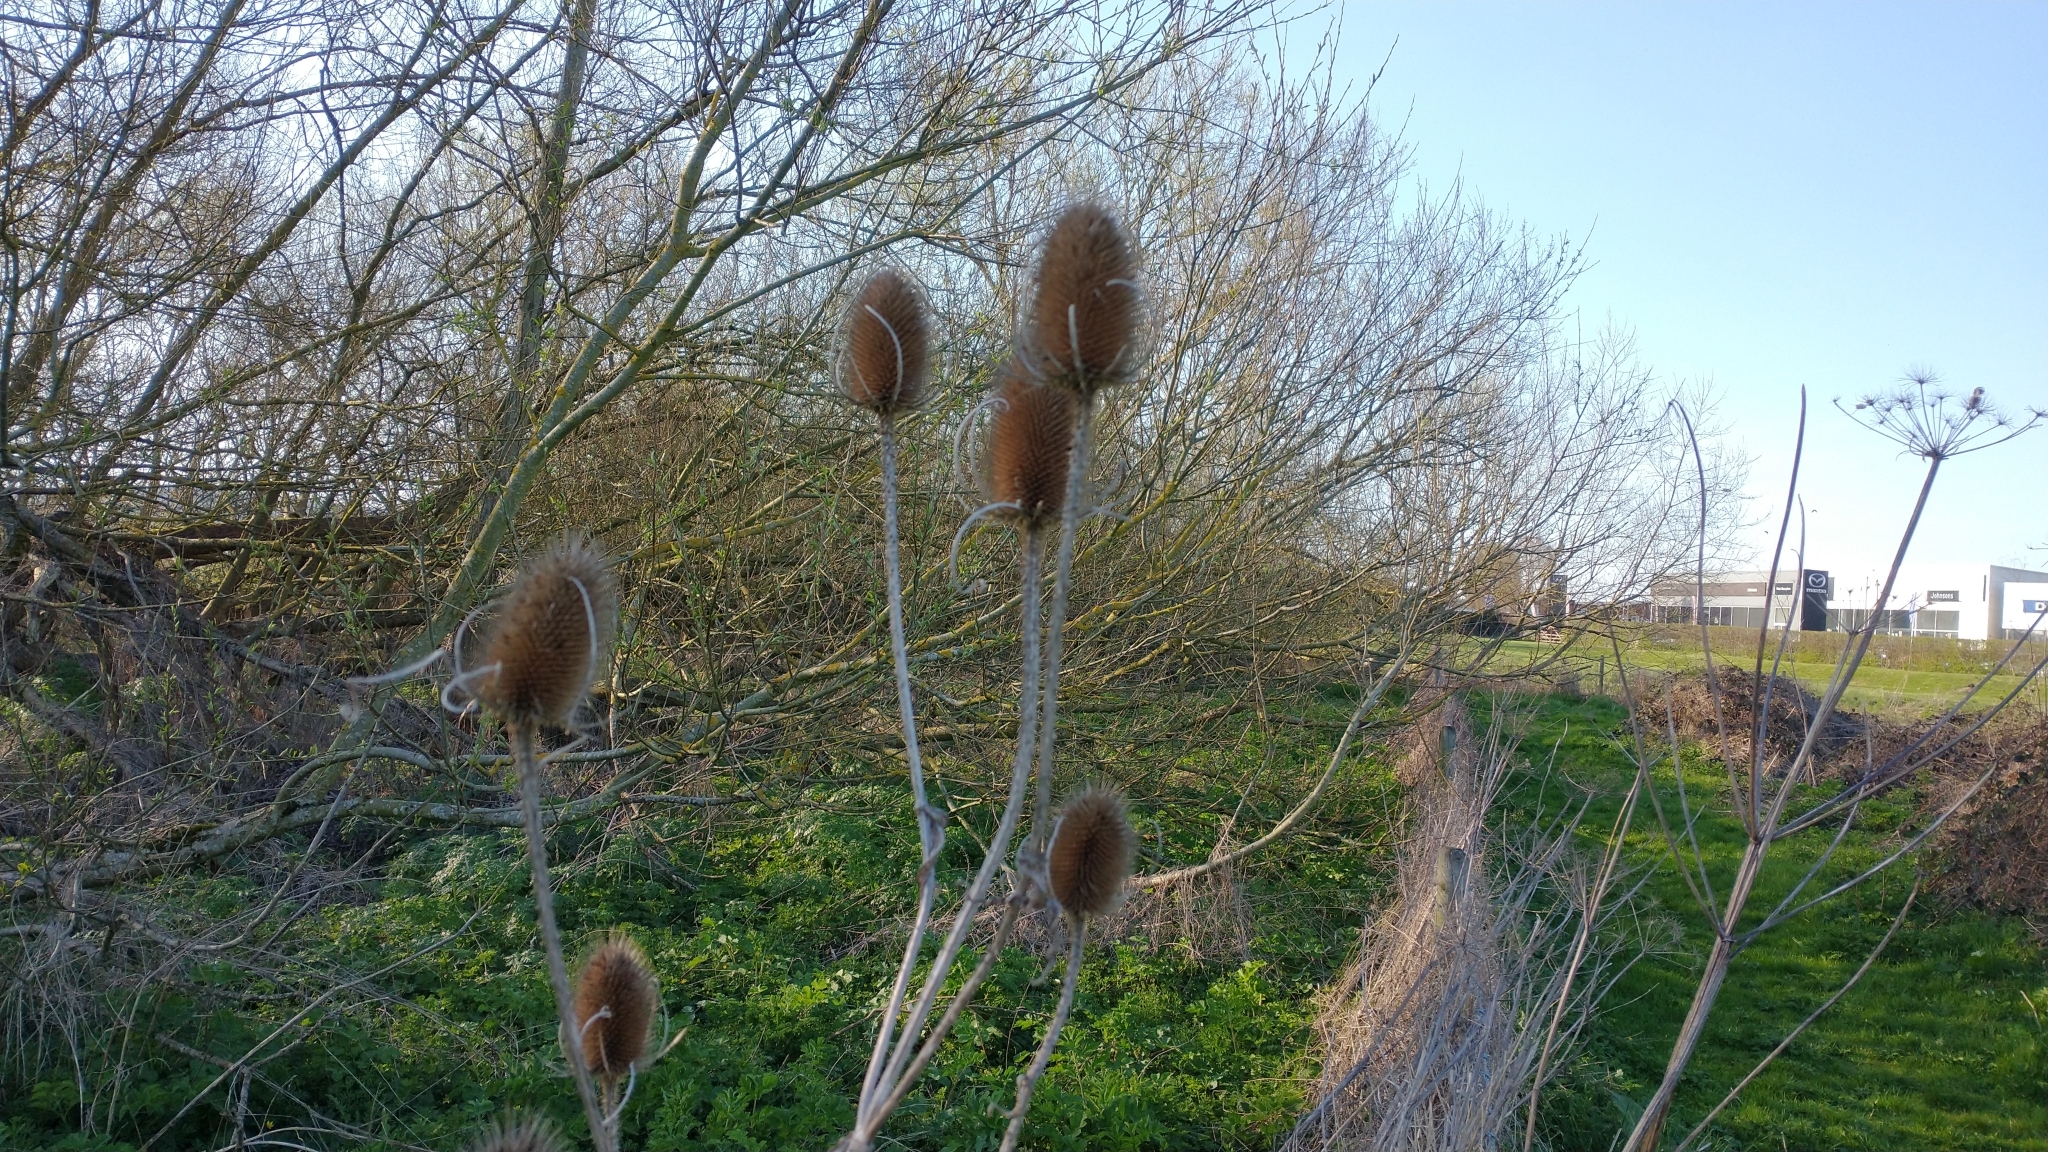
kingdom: Plantae
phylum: Tracheophyta
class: Magnoliopsida
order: Dipsacales
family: Caprifoliaceae
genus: Dipsacus
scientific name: Dipsacus fullonum
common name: Teasel
